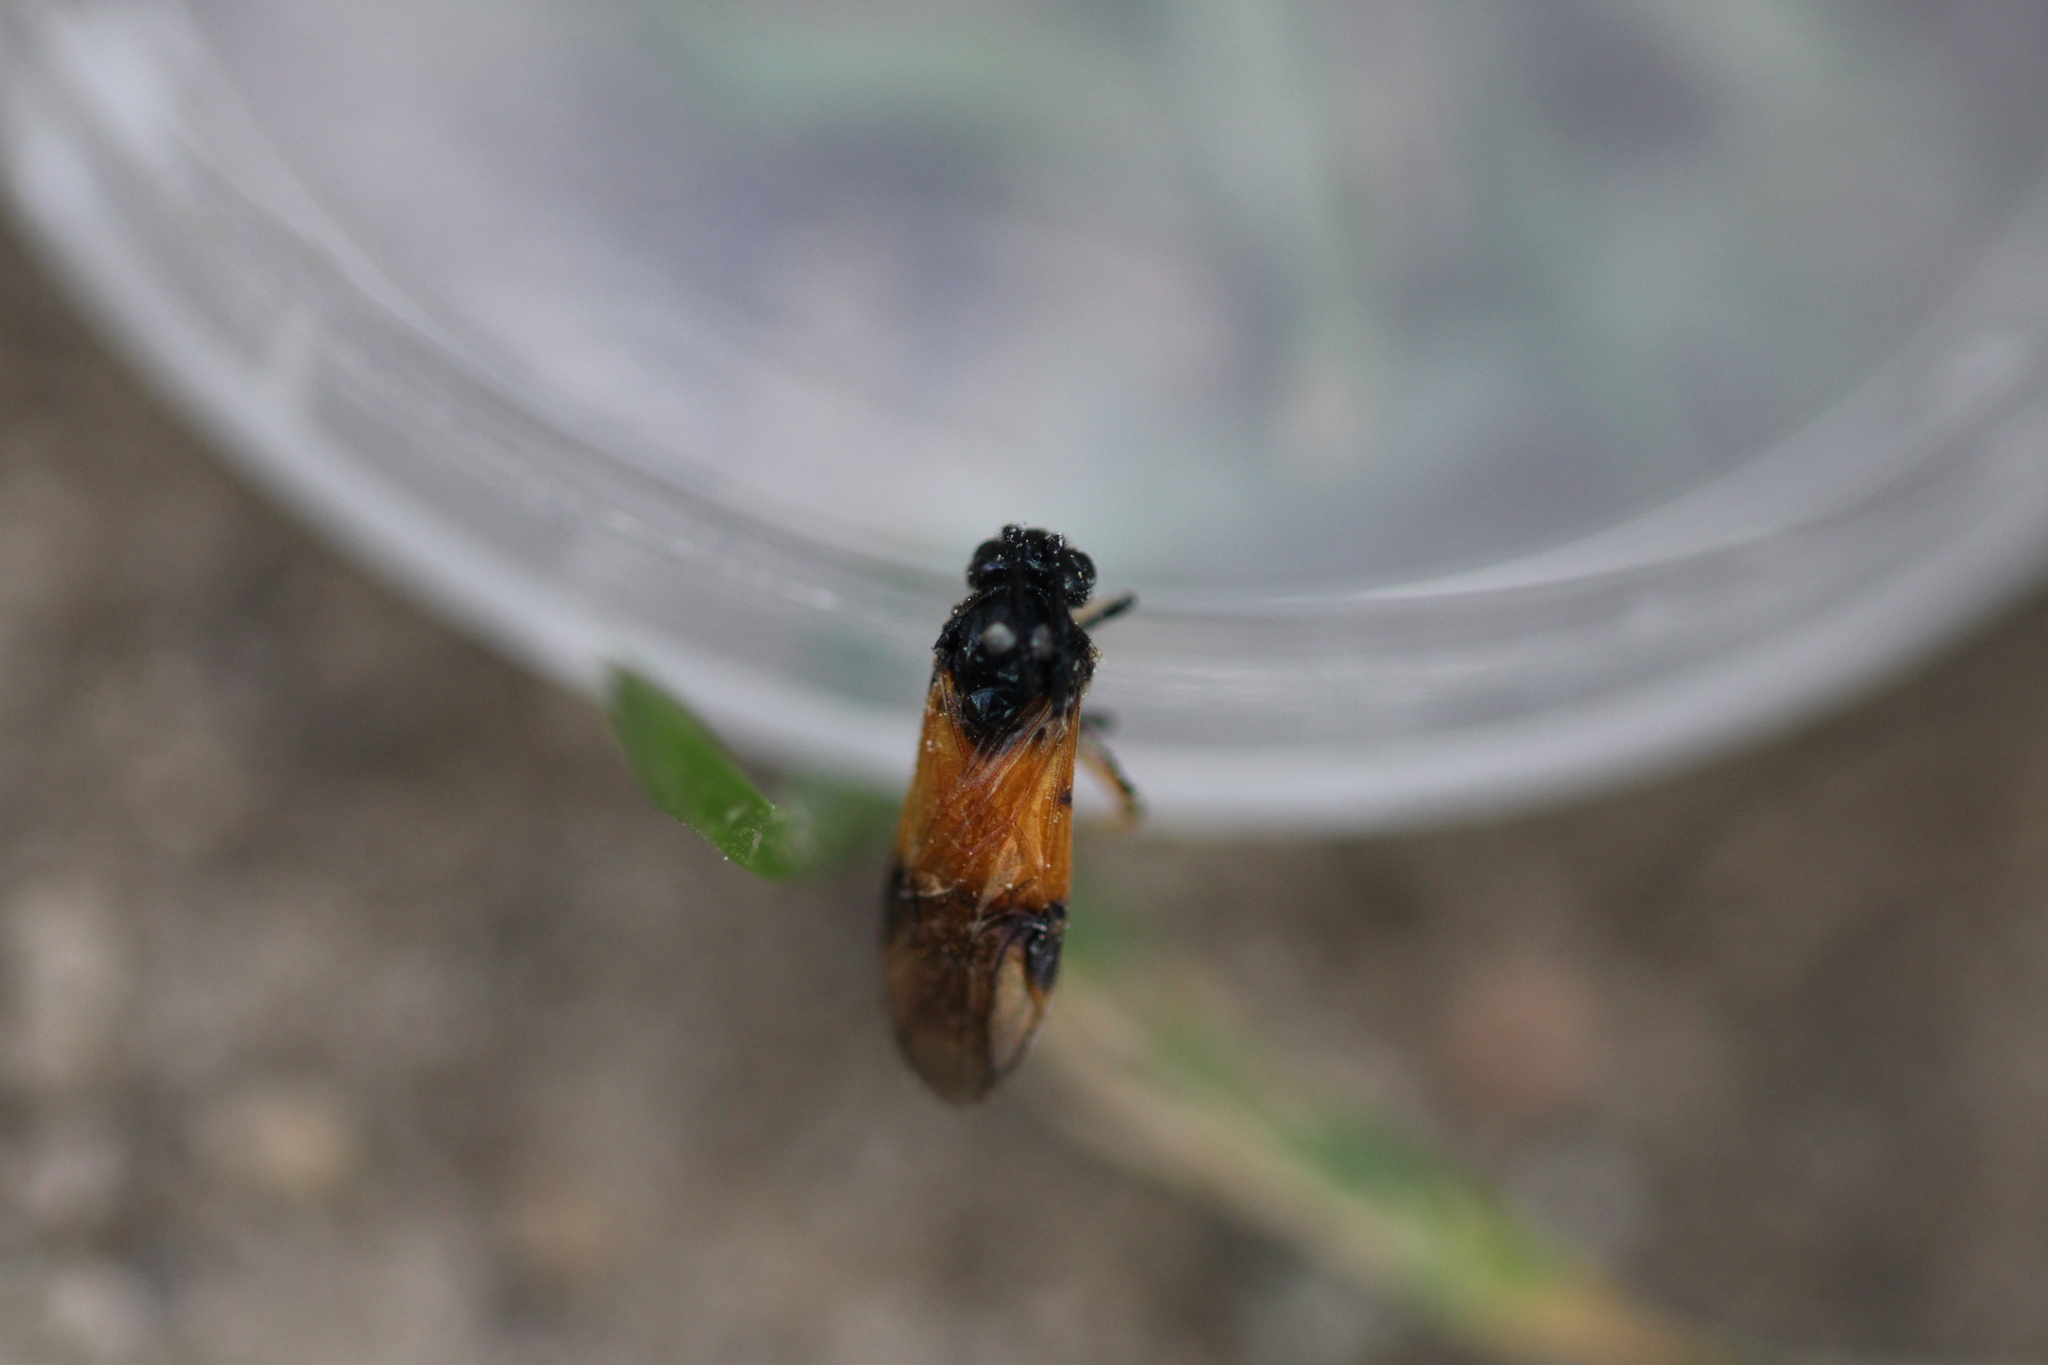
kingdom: Animalia
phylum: Arthropoda
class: Insecta
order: Hymenoptera
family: Argidae
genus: Arge
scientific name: Arge cyanocrocea
